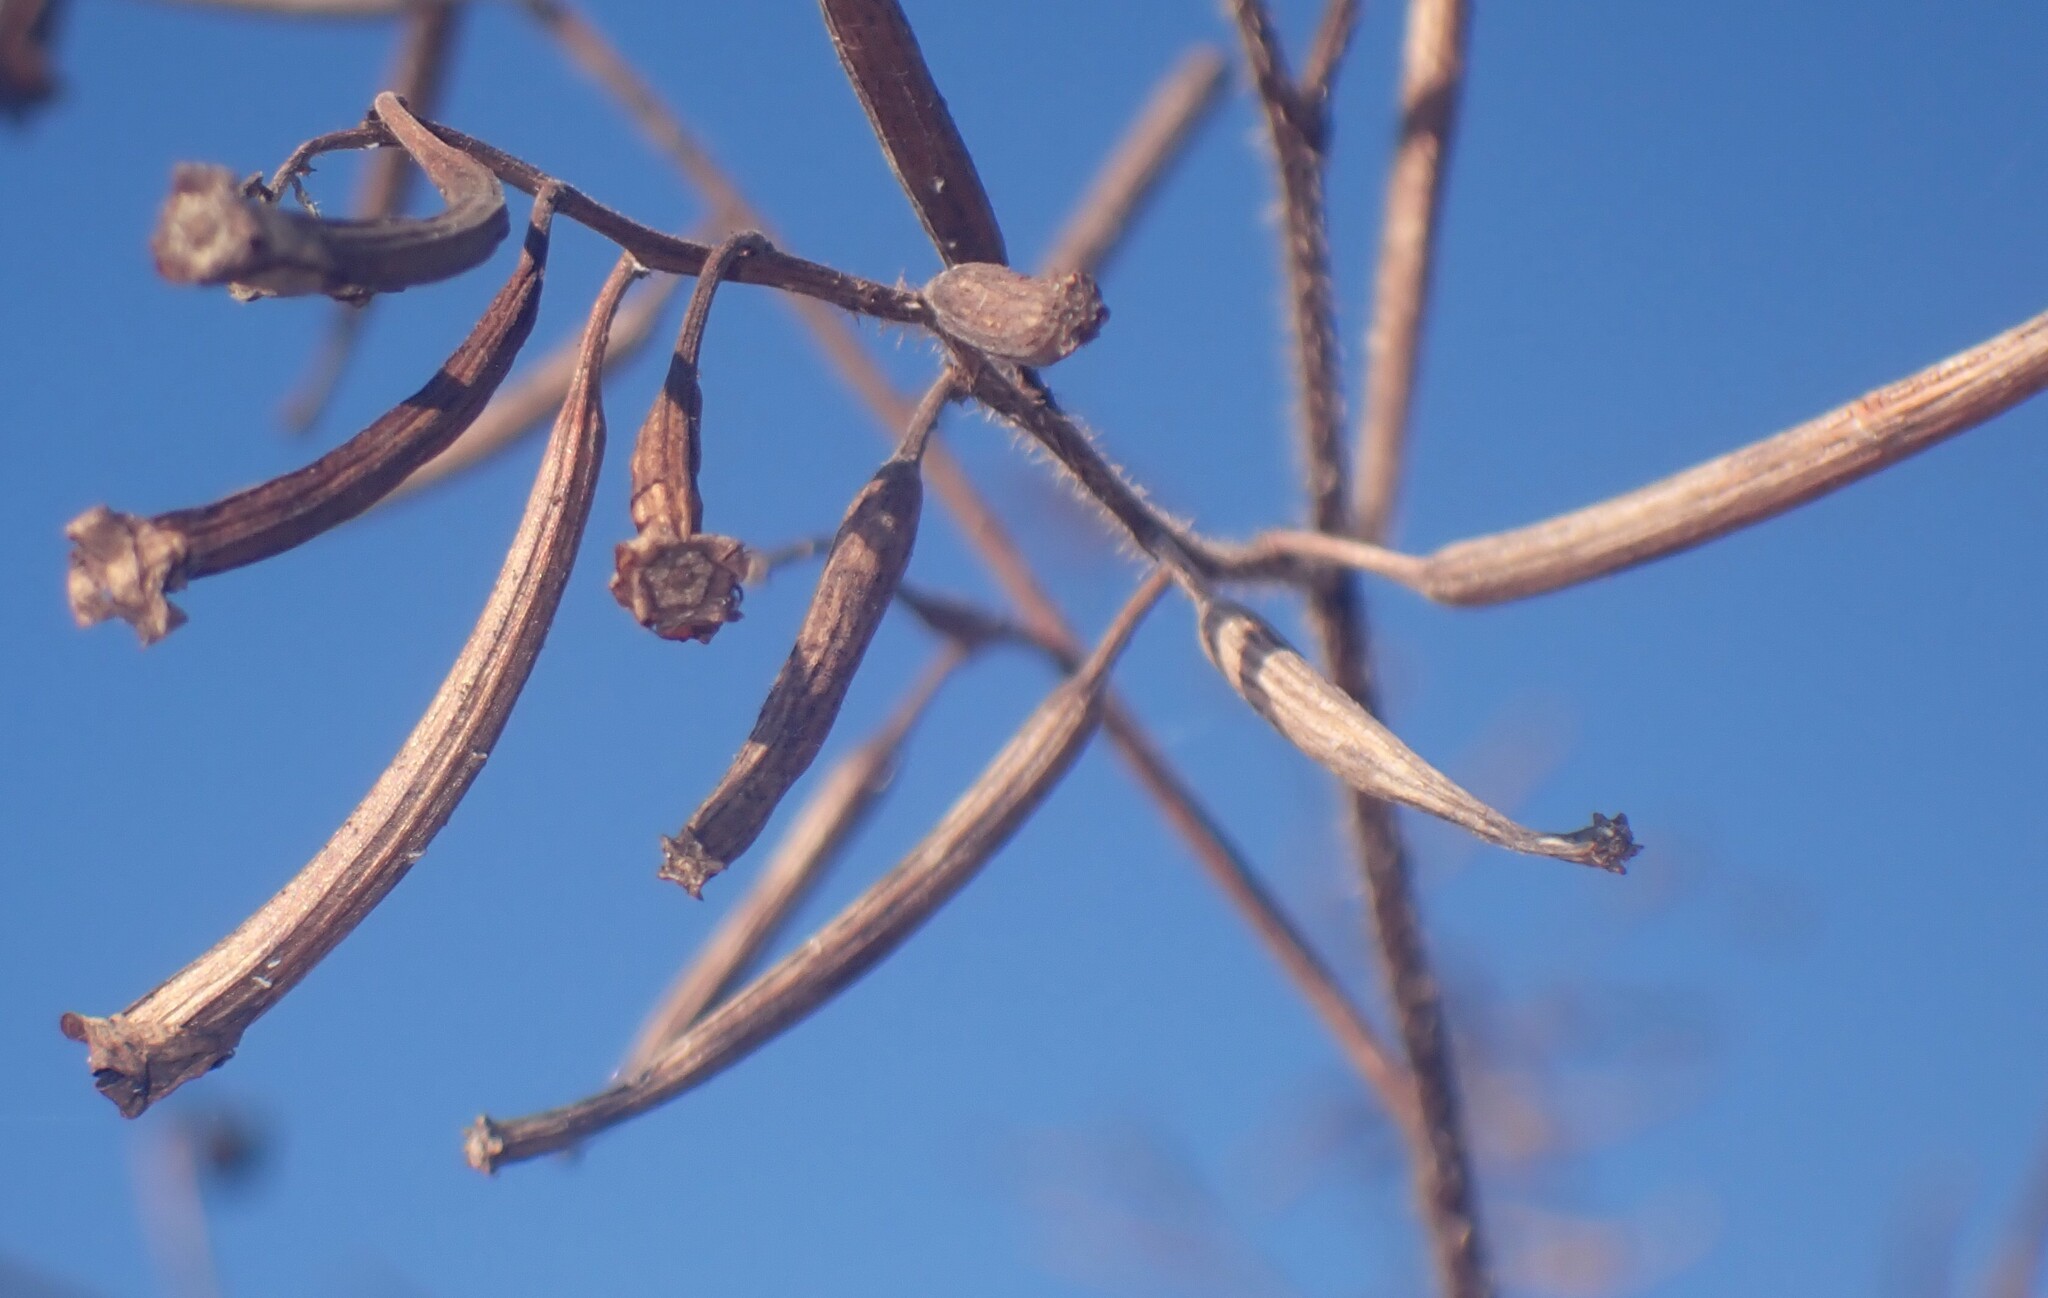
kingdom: Plantae
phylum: Tracheophyta
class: Magnoliopsida
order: Myrtales
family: Onagraceae
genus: Ludwigia
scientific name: Ludwigia leptocarpa
